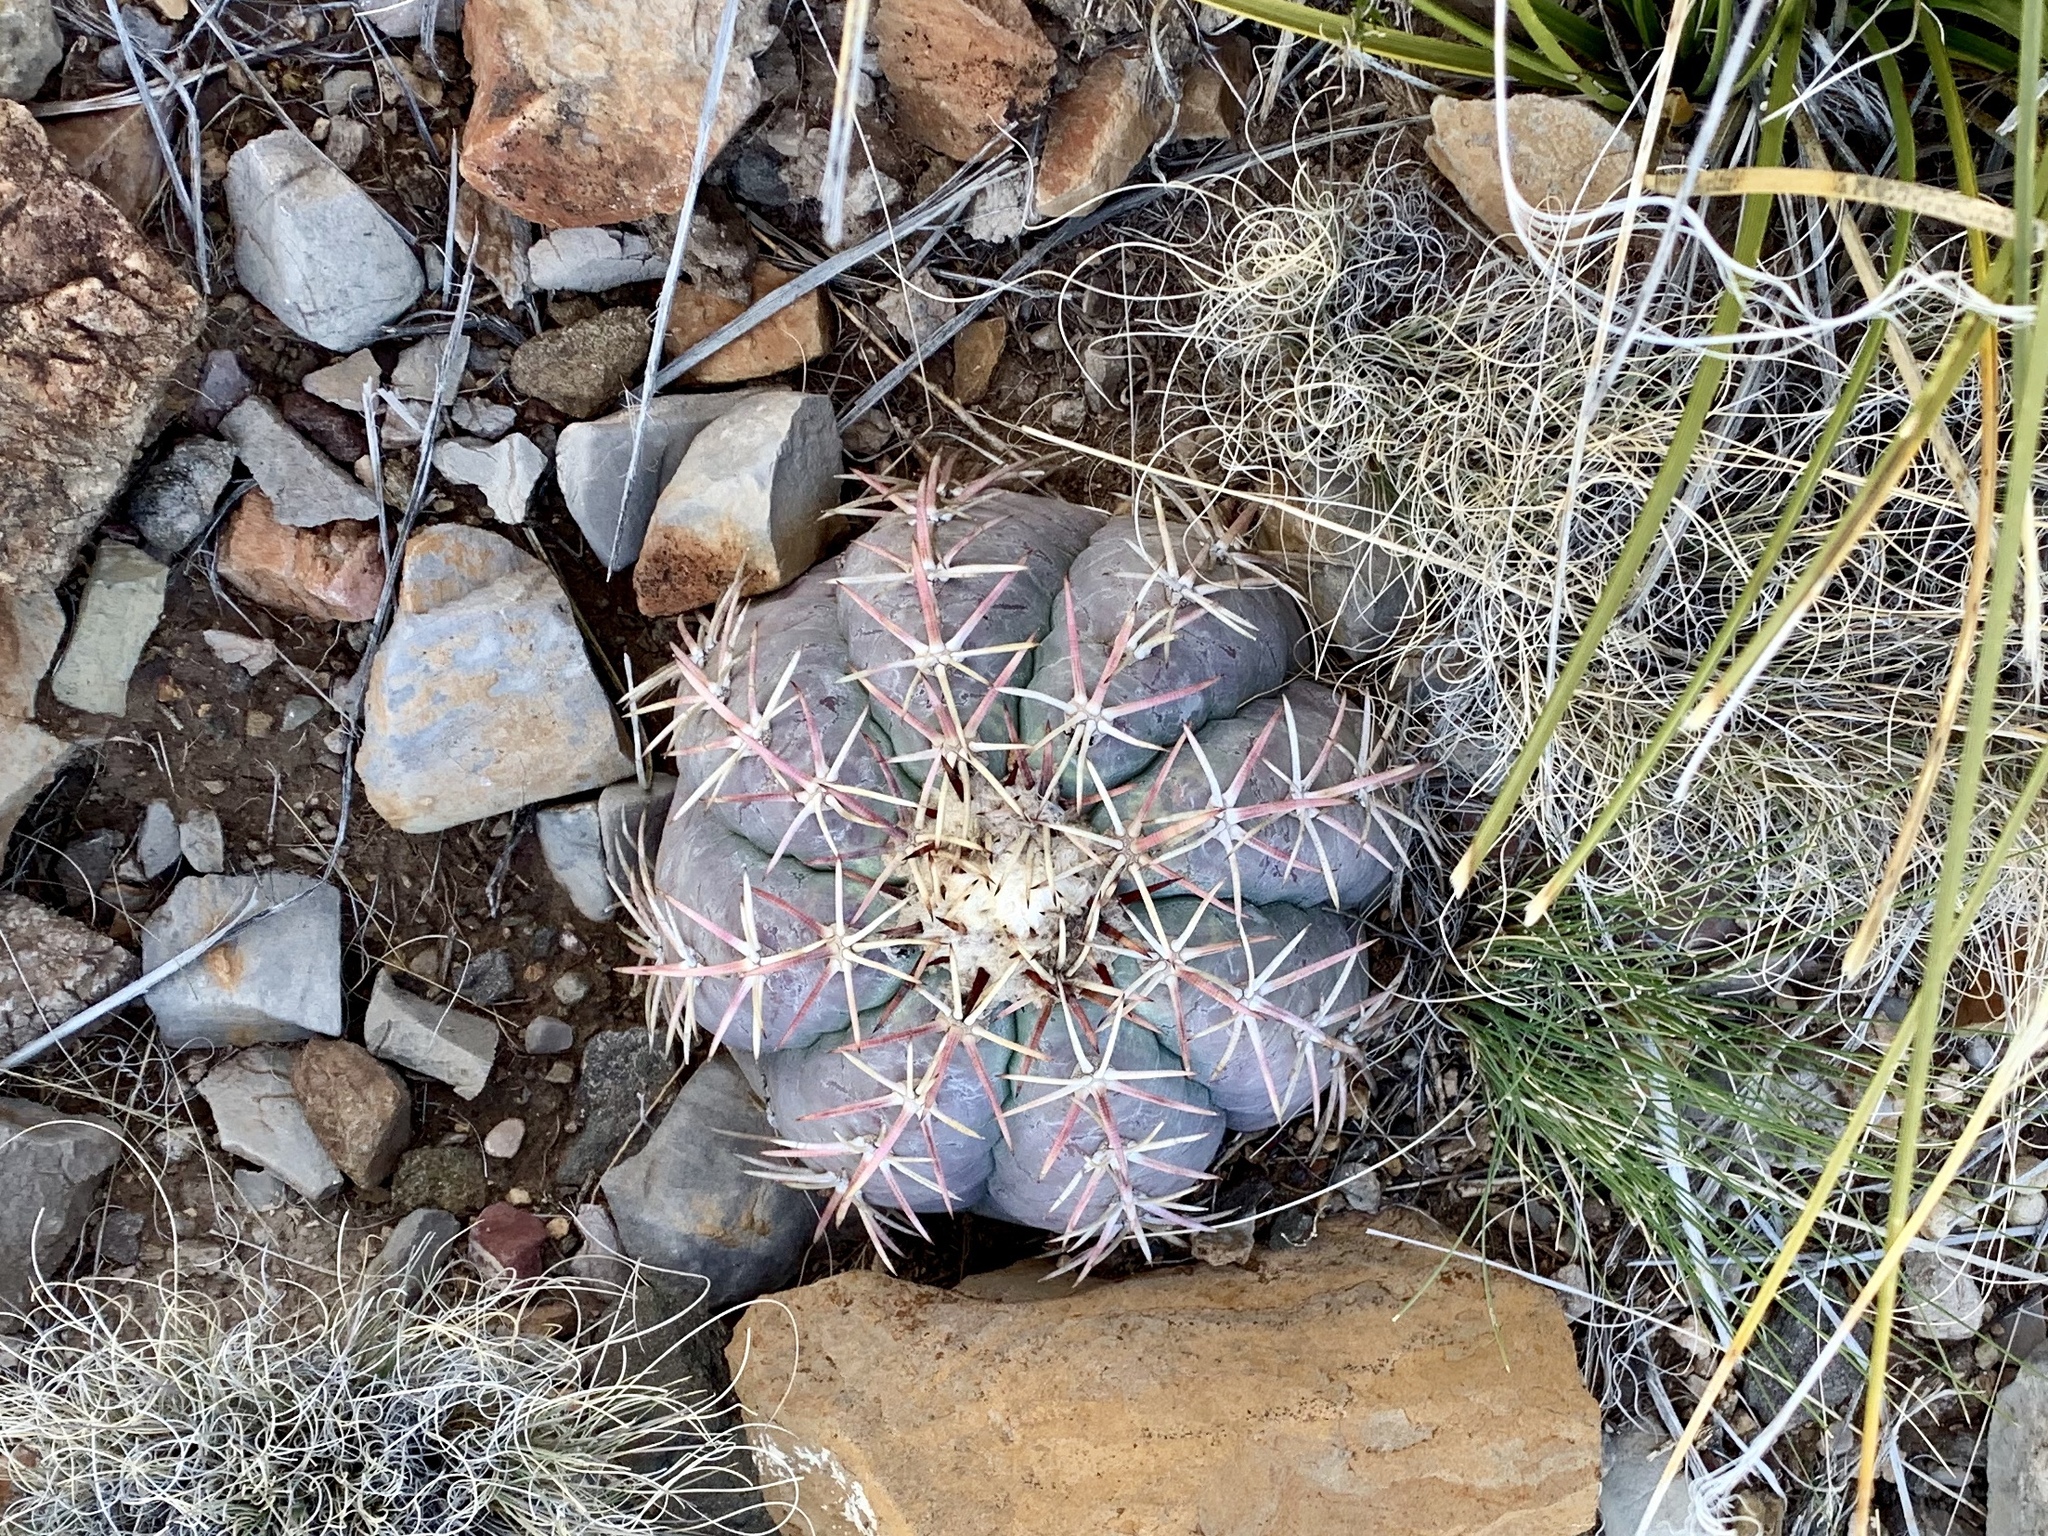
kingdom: Plantae
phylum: Tracheophyta
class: Magnoliopsida
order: Caryophyllales
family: Cactaceae
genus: Echinocactus
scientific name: Echinocactus horizonthalonius
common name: Devilshead
